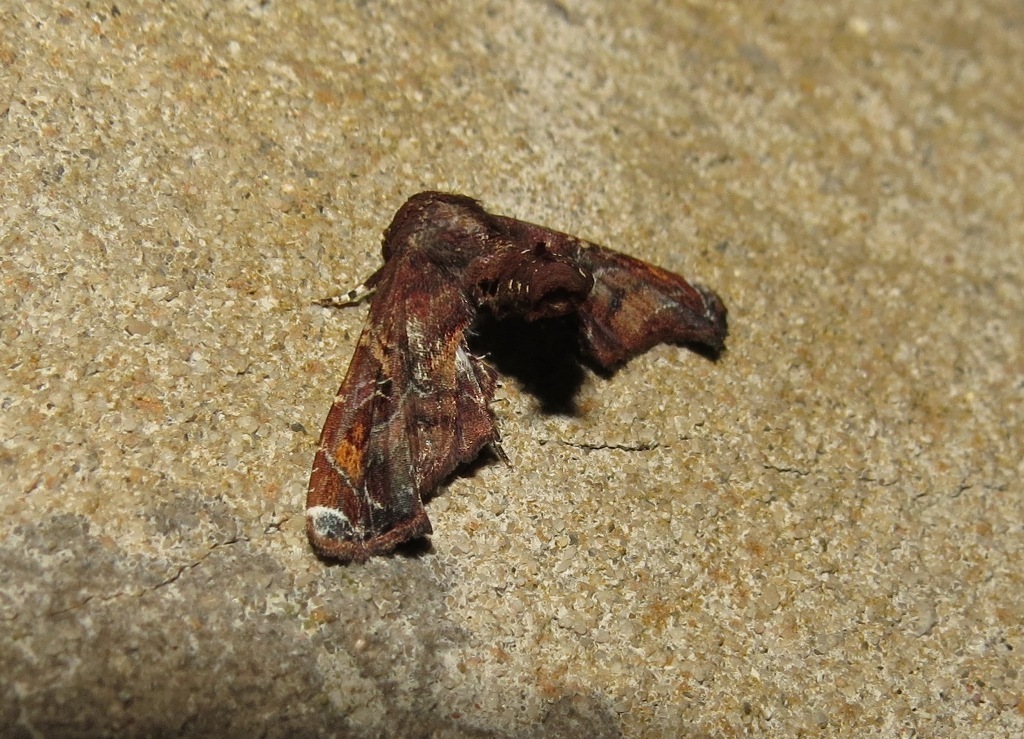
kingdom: Animalia
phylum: Arthropoda
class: Insecta
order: Lepidoptera
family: Euteliidae
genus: Eutelia
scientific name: Eutelia auratrix
